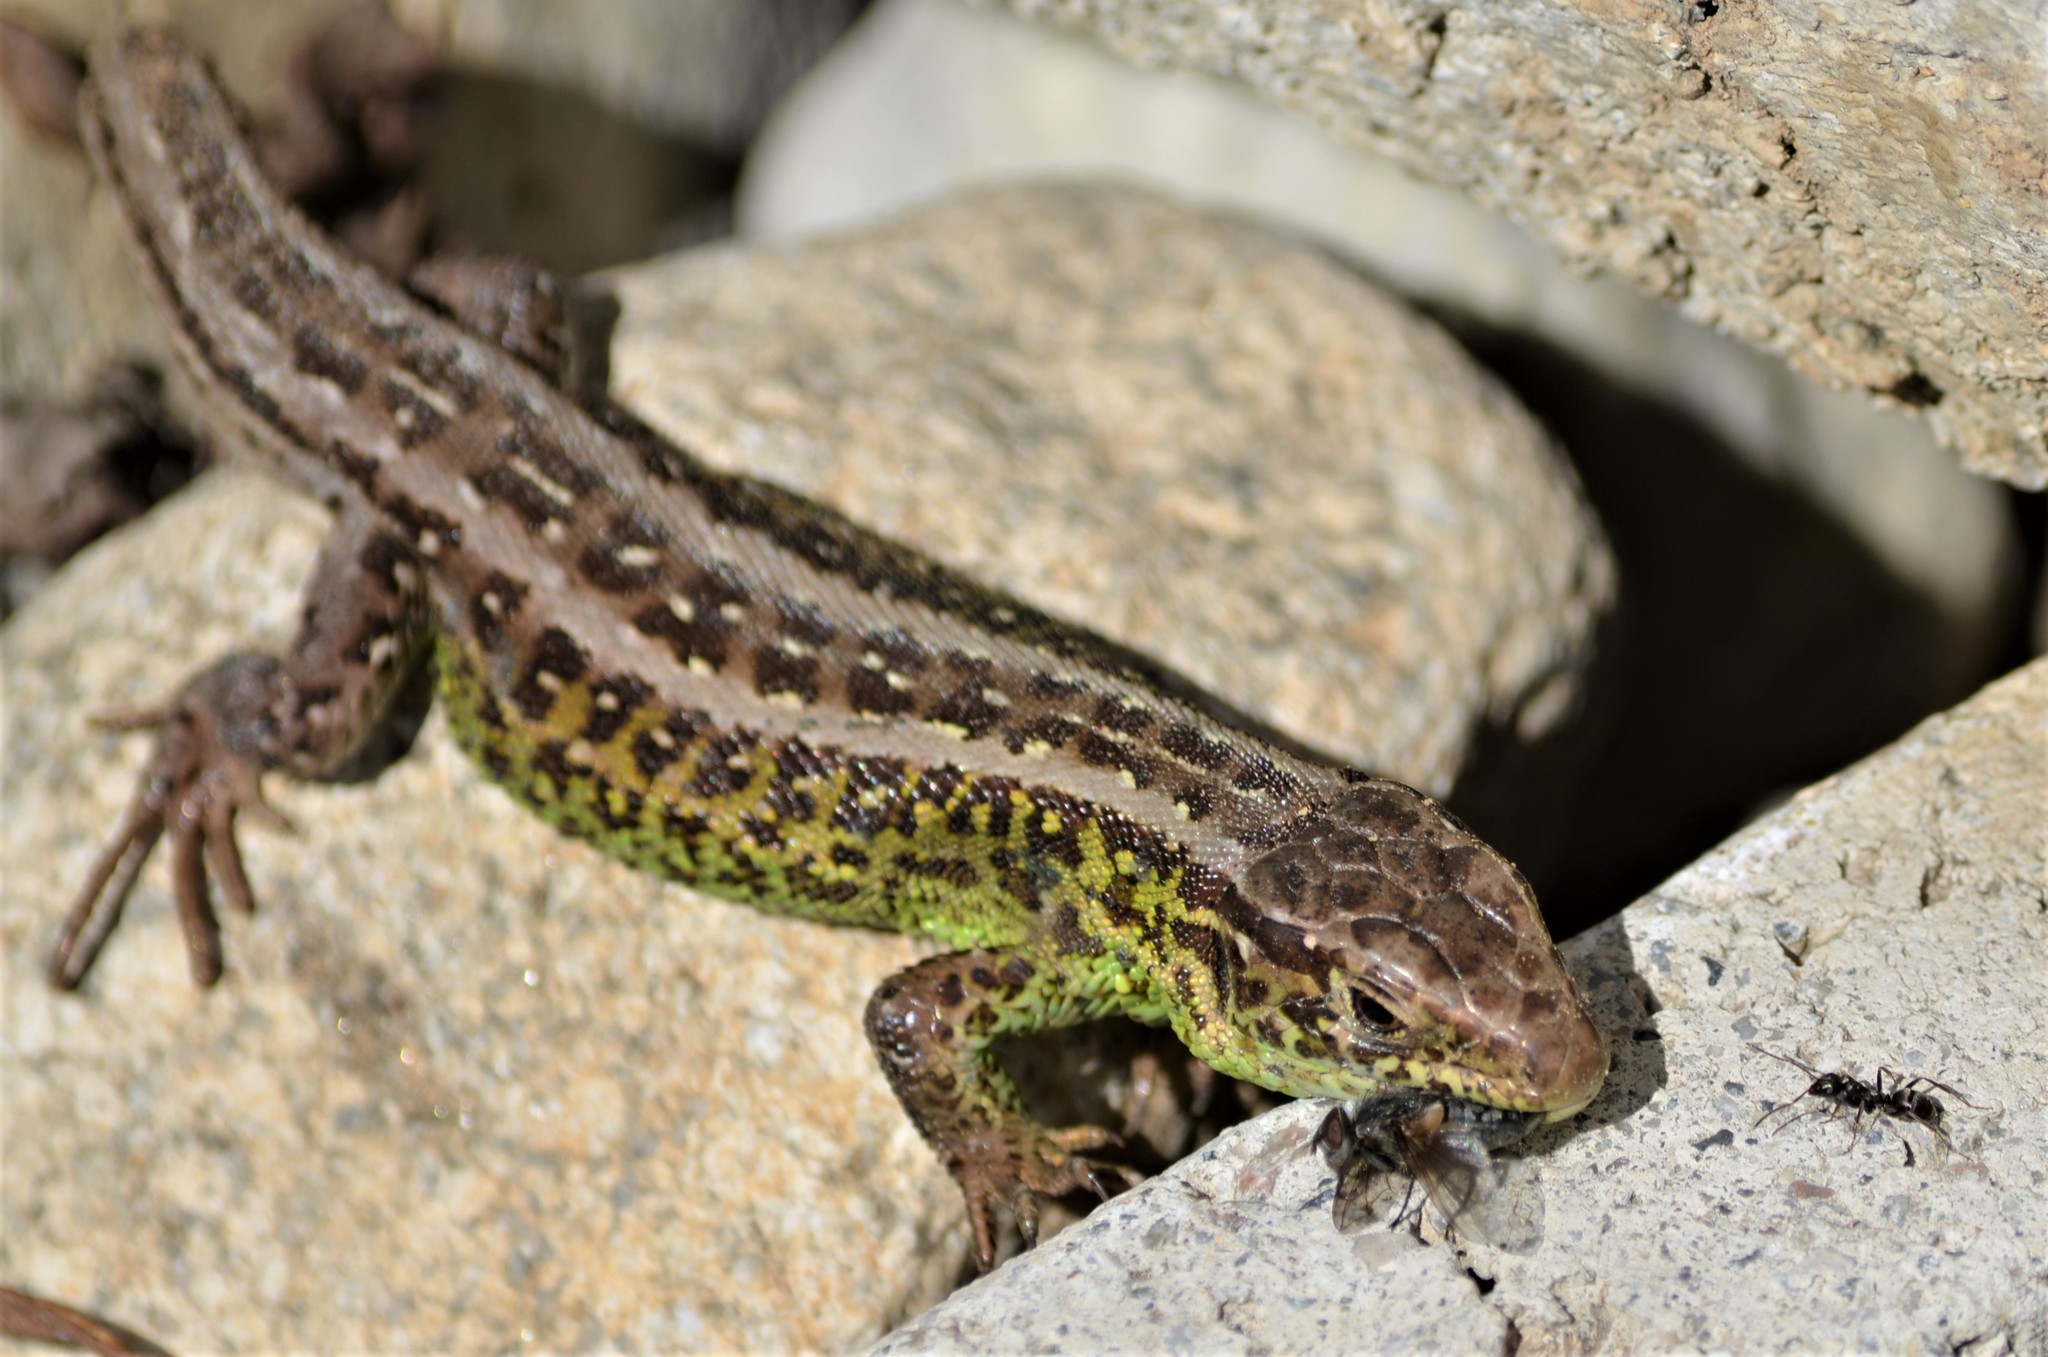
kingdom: Animalia
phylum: Chordata
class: Squamata
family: Lacertidae
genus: Lacerta
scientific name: Lacerta agilis
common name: Sand lizard
